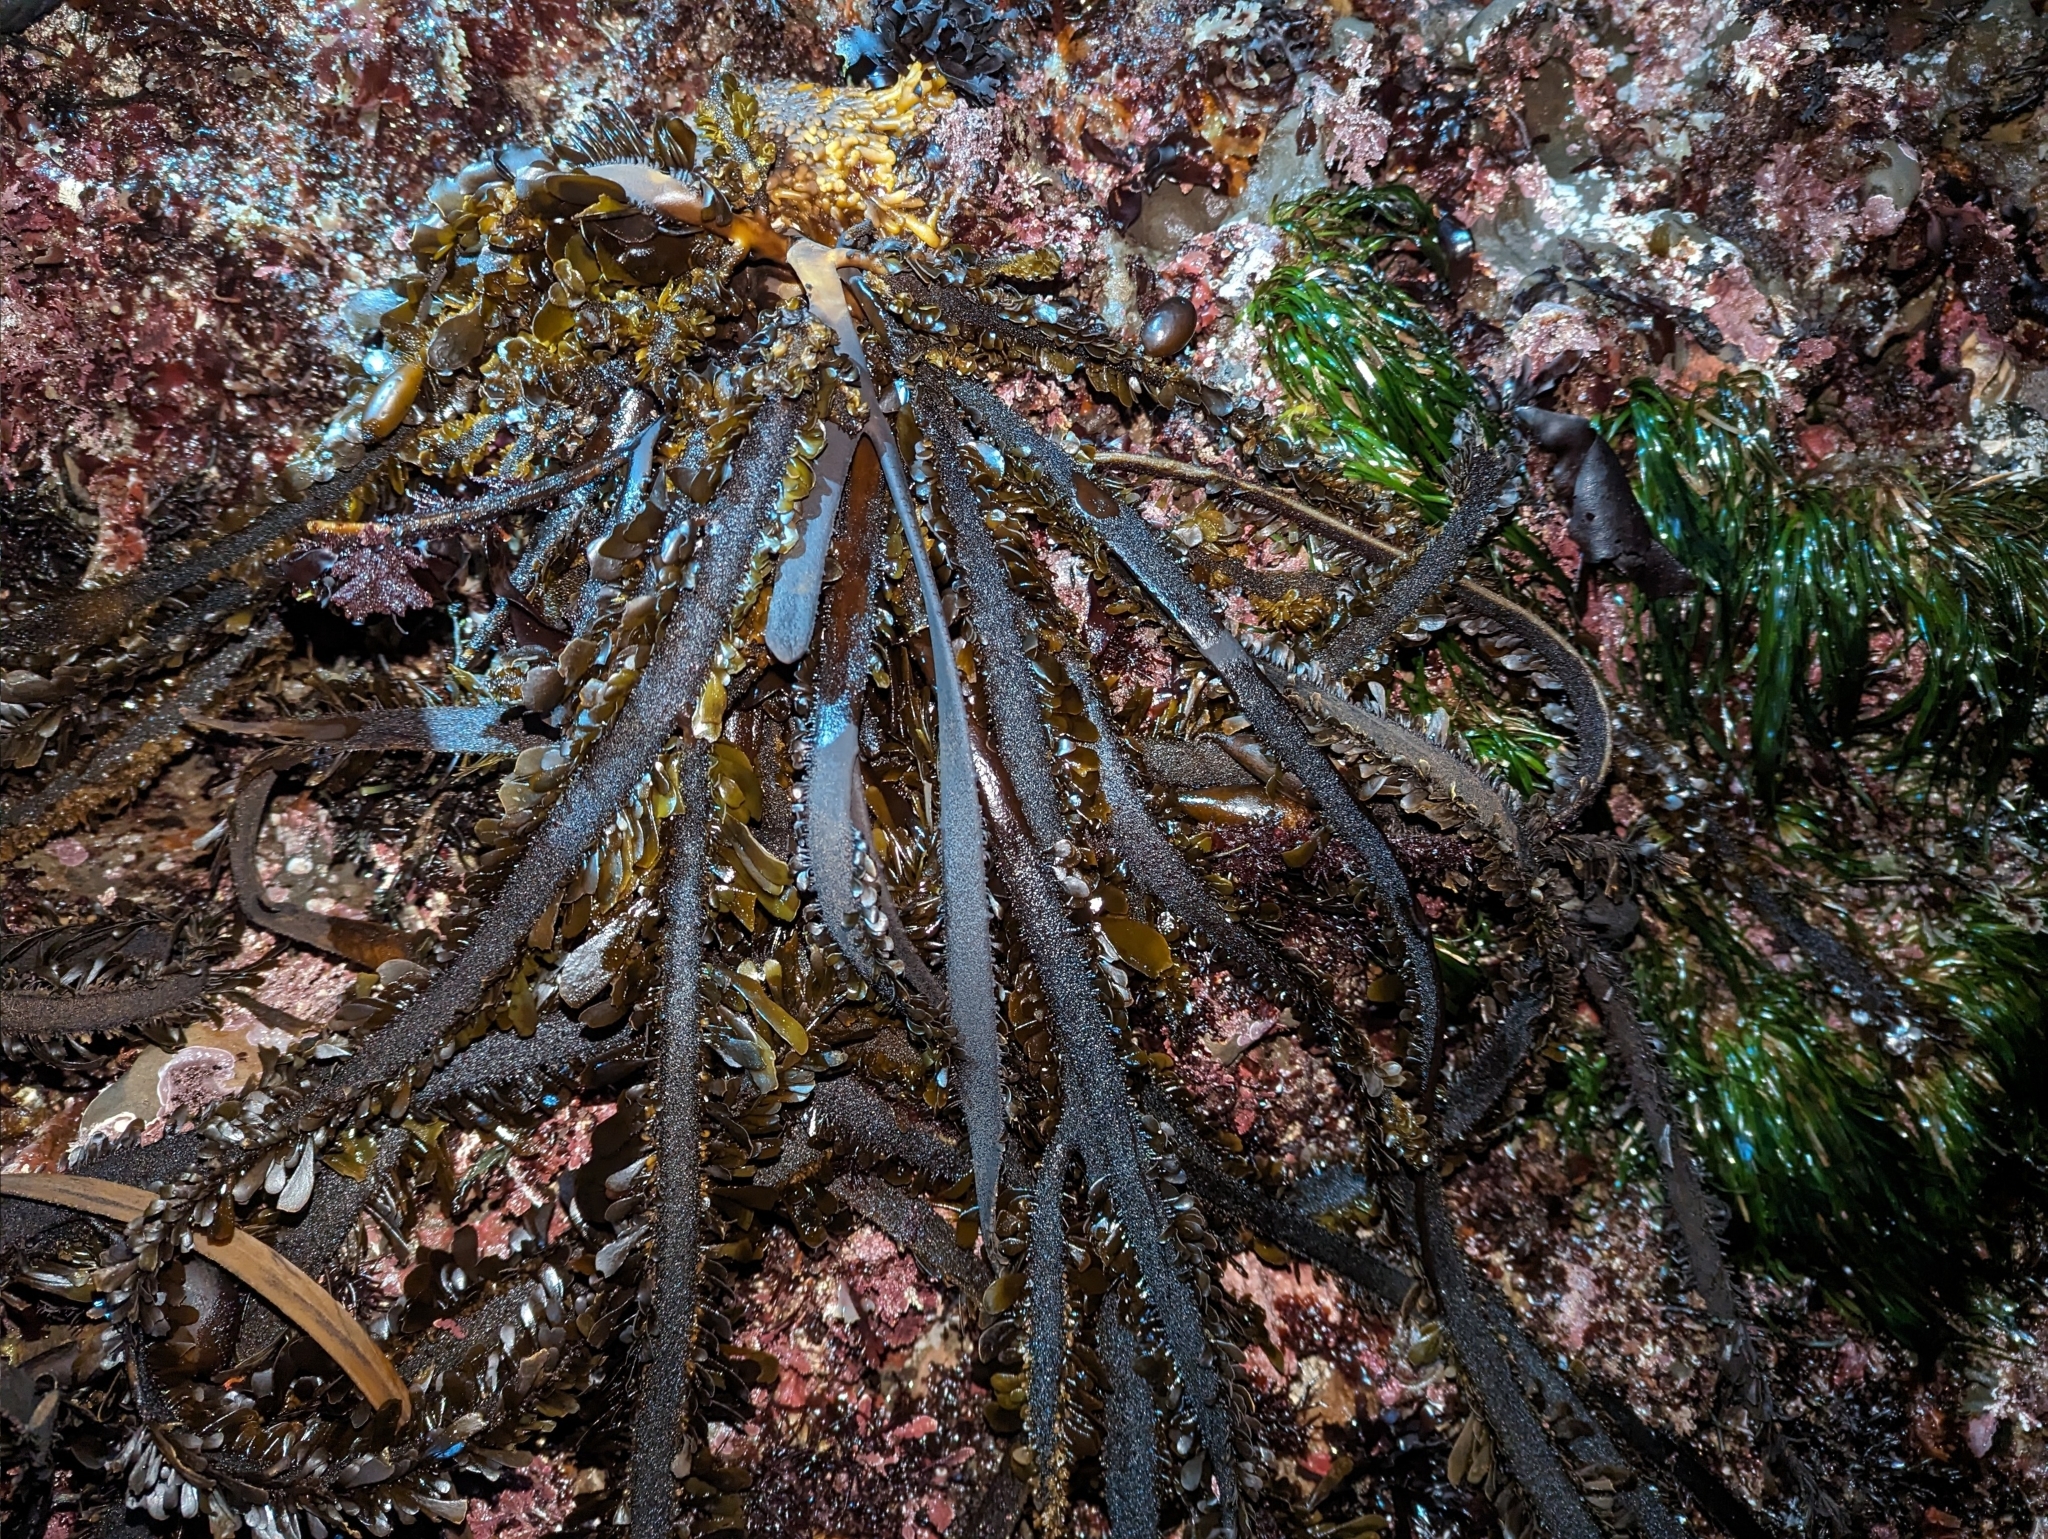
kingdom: Chromista
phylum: Ochrophyta
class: Phaeophyceae
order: Laminariales
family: Lessoniaceae
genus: Egregia
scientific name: Egregia menziesii
